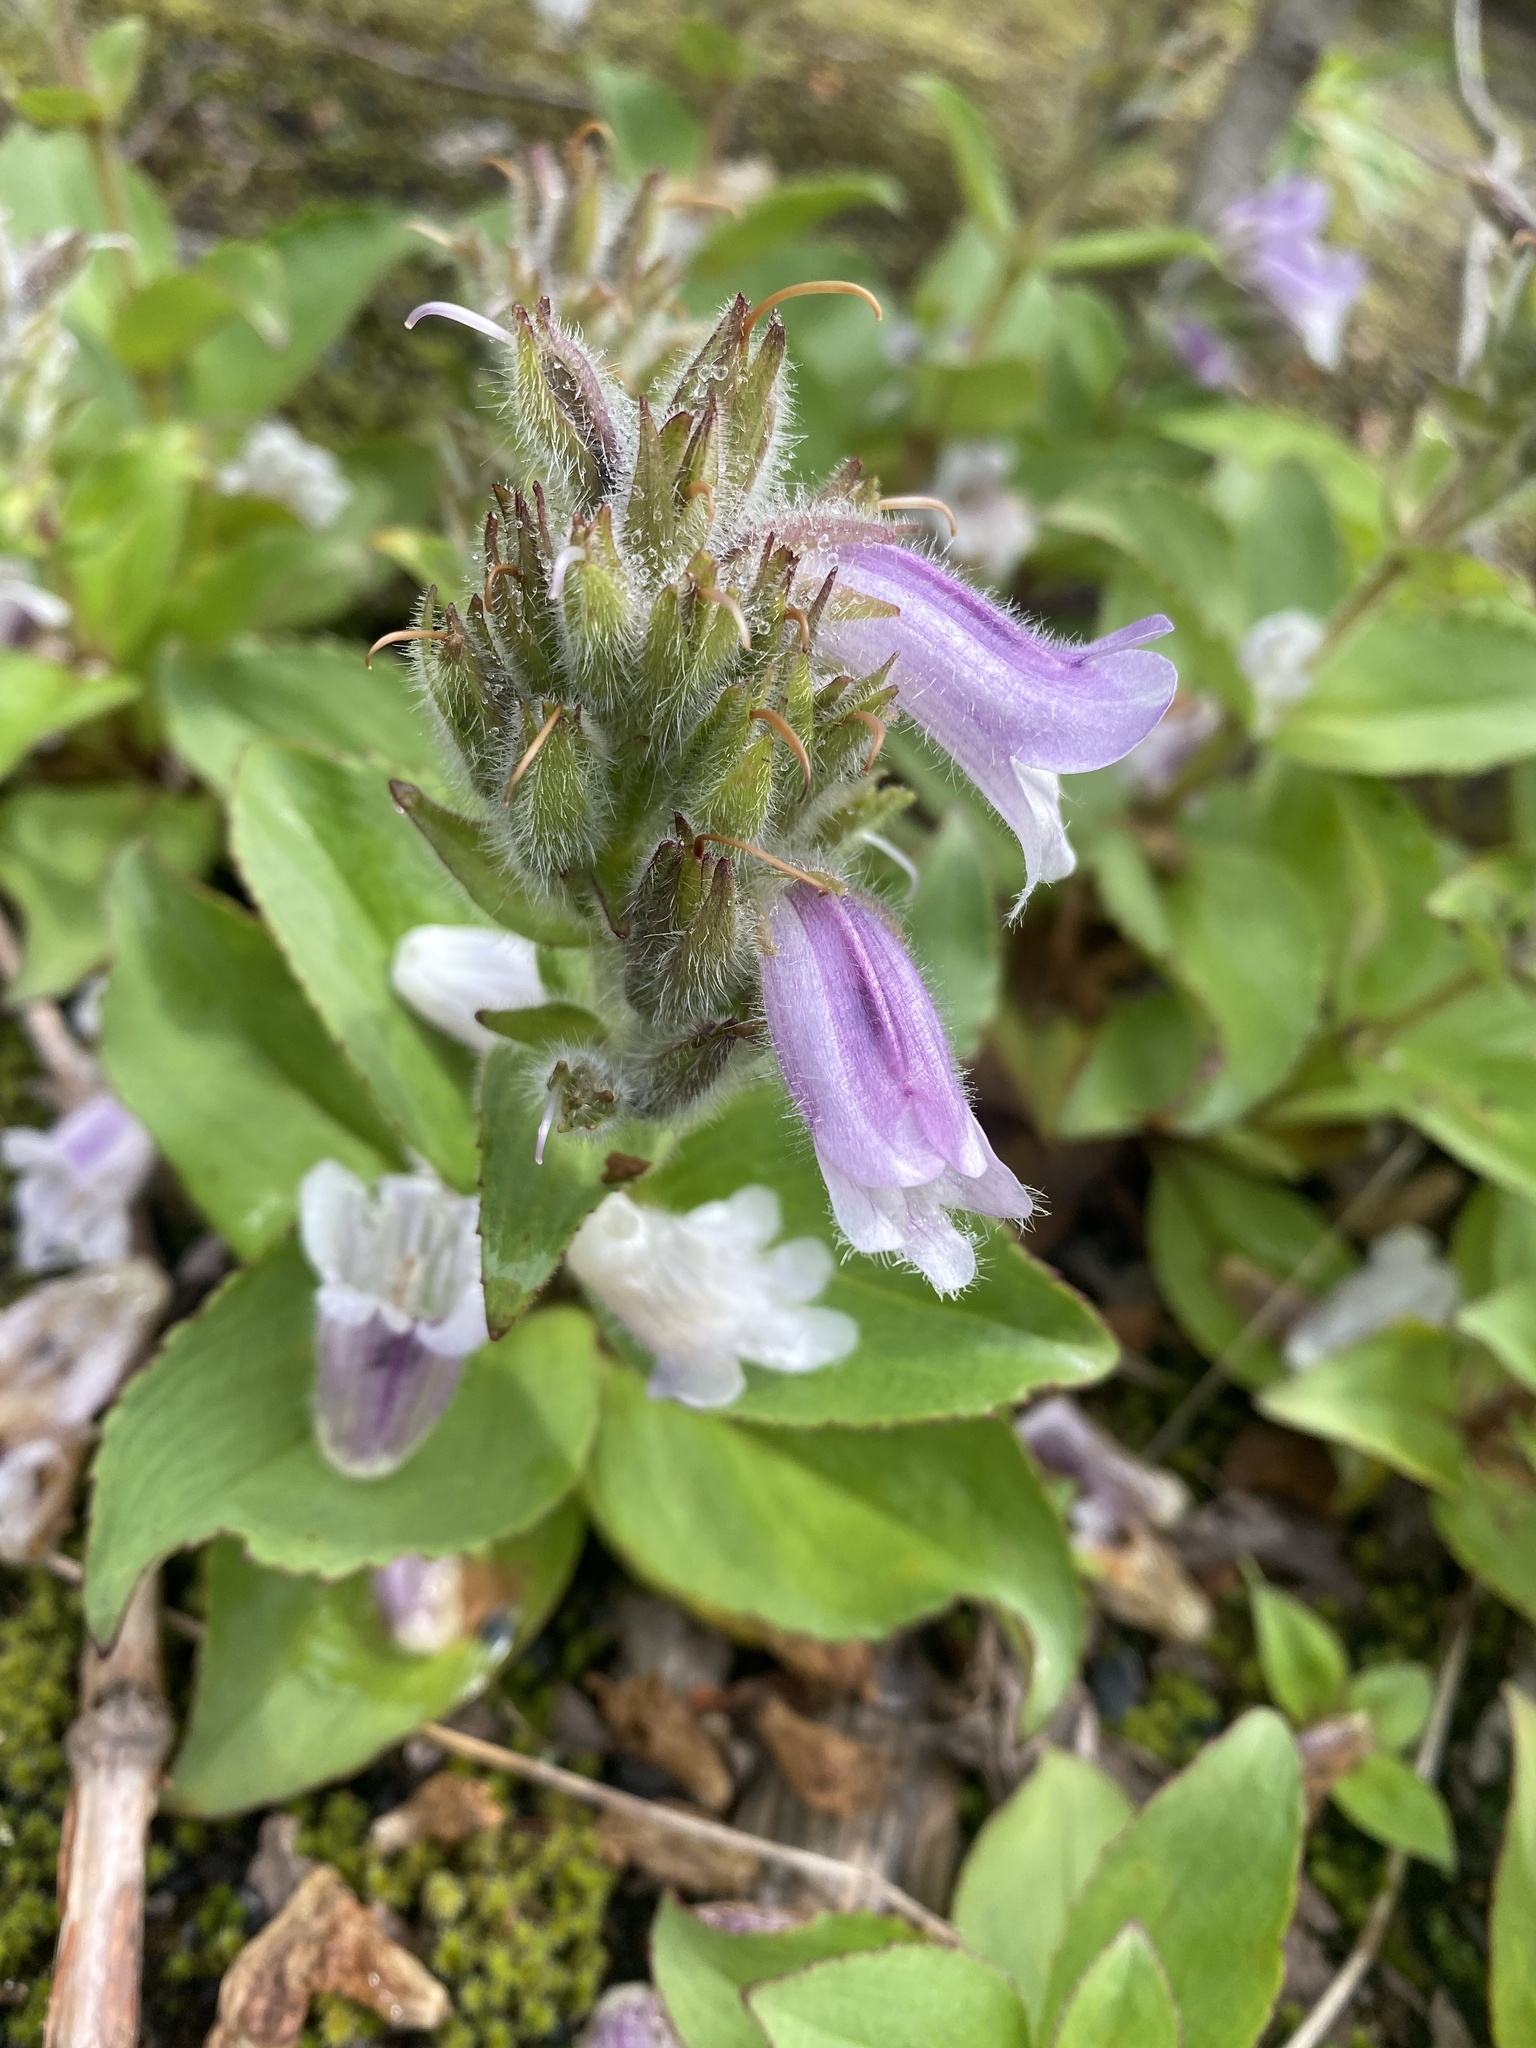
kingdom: Plantae
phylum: Tracheophyta
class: Magnoliopsida
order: Lamiales
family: Plantaginaceae
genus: Pennellianthus
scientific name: Pennellianthus frutescens
